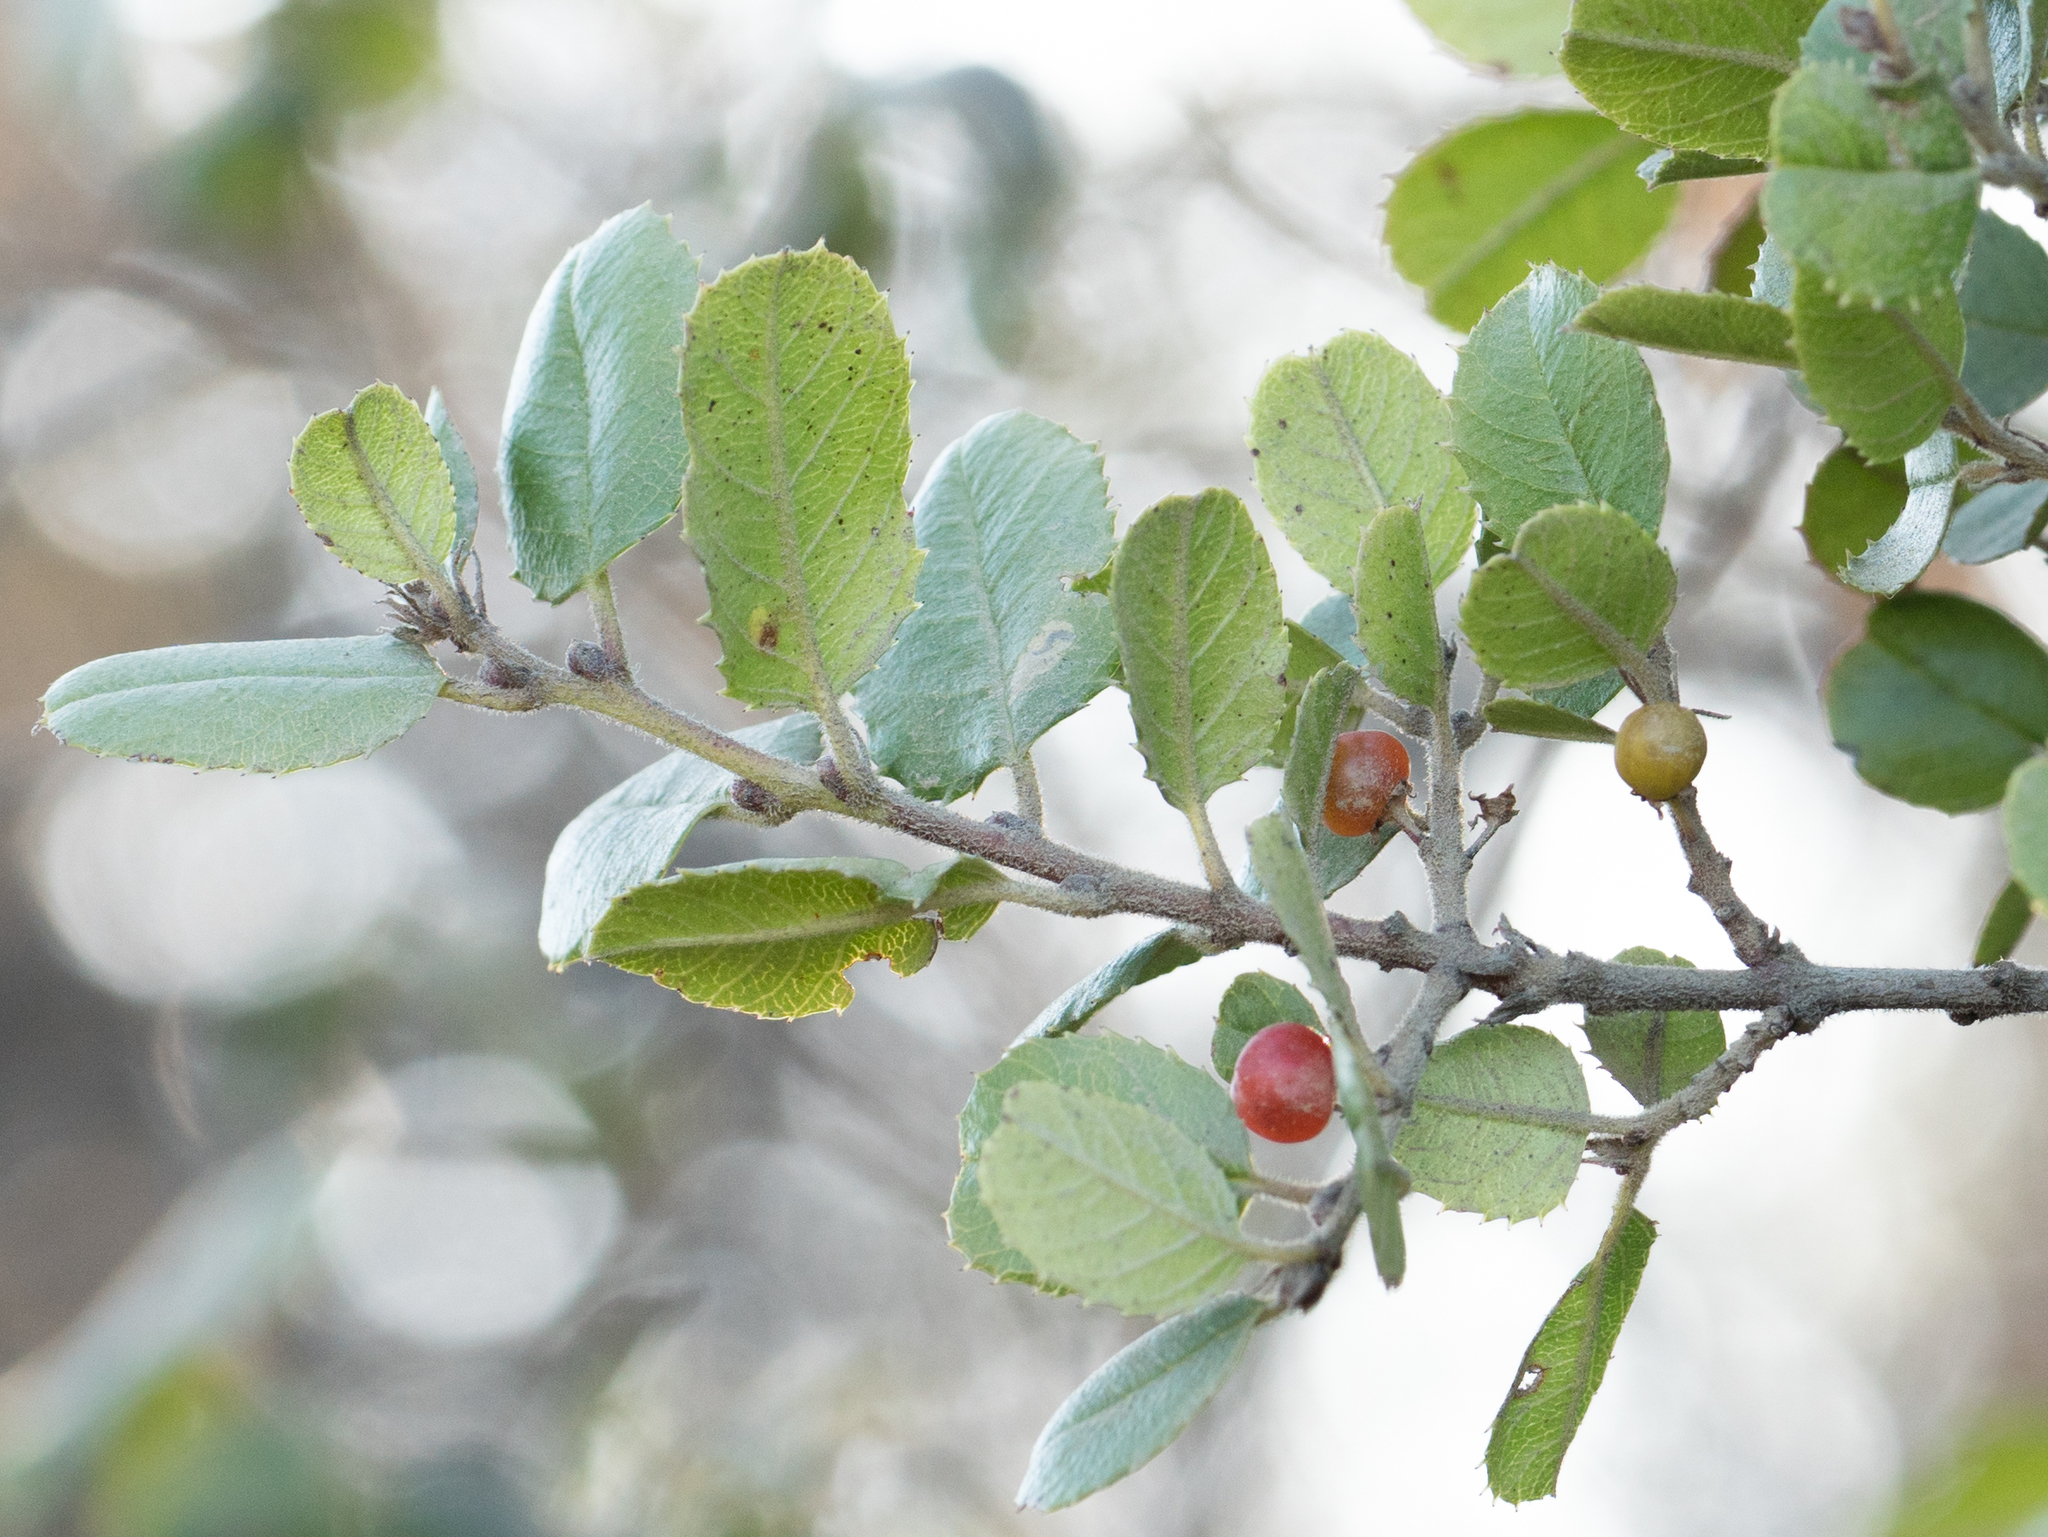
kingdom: Plantae
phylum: Tracheophyta
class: Magnoliopsida
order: Rosales
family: Rhamnaceae
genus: Endotropis
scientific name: Endotropis crocea
